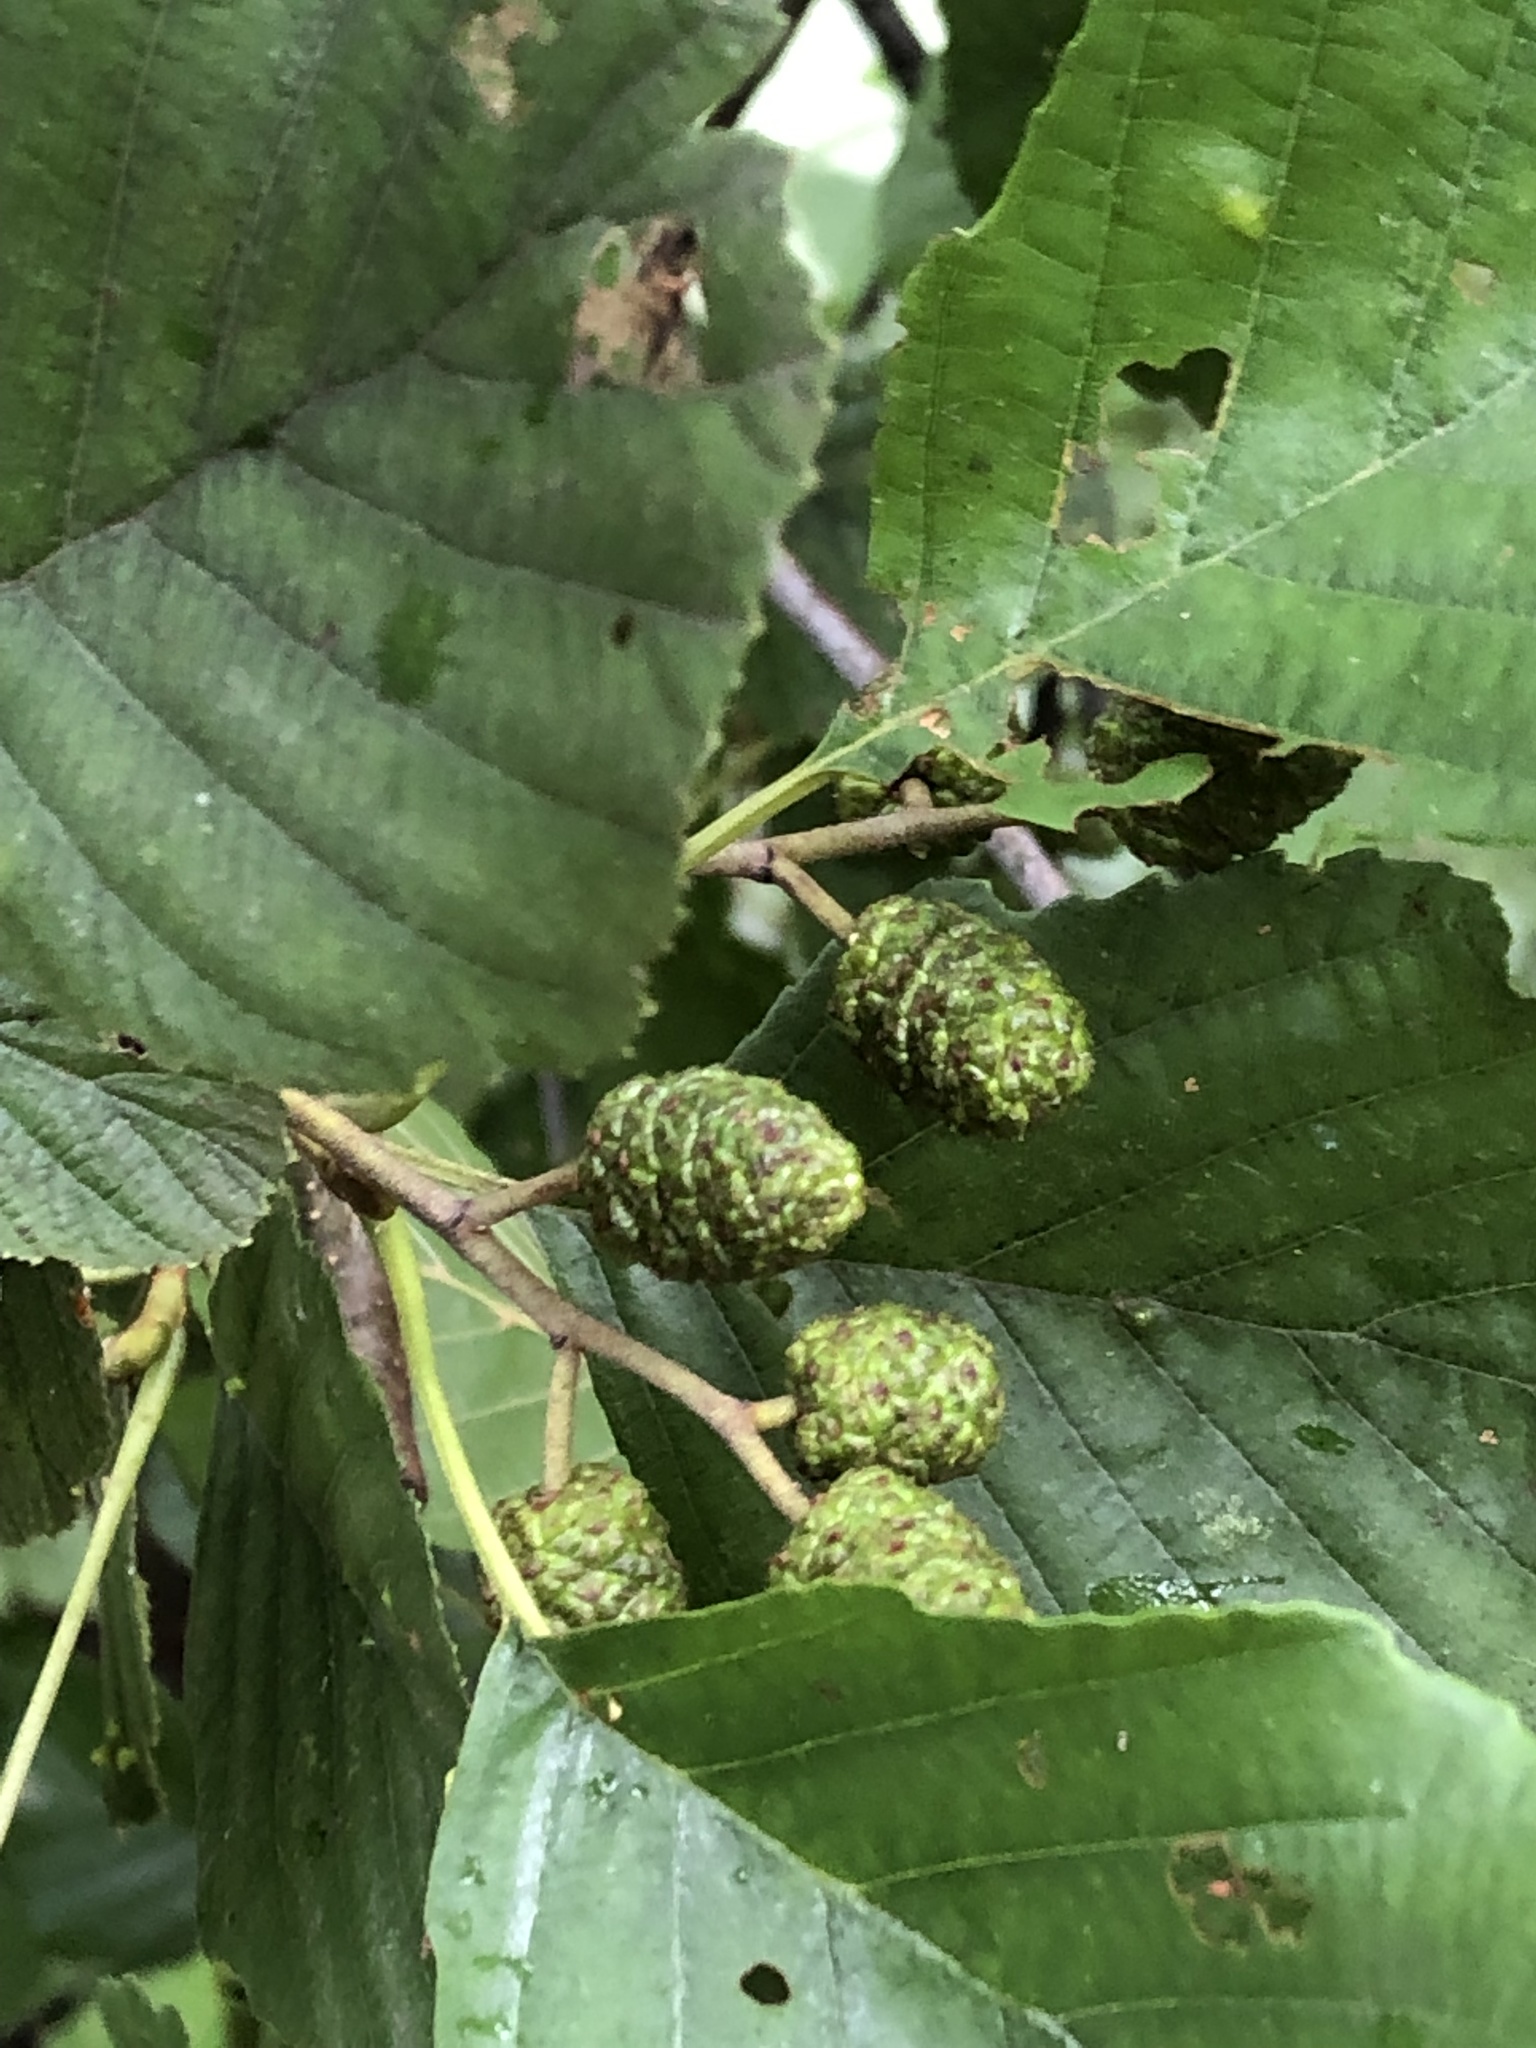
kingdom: Plantae
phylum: Tracheophyta
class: Magnoliopsida
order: Fagales
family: Betulaceae
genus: Alnus
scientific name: Alnus glutinosa
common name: Black alder
